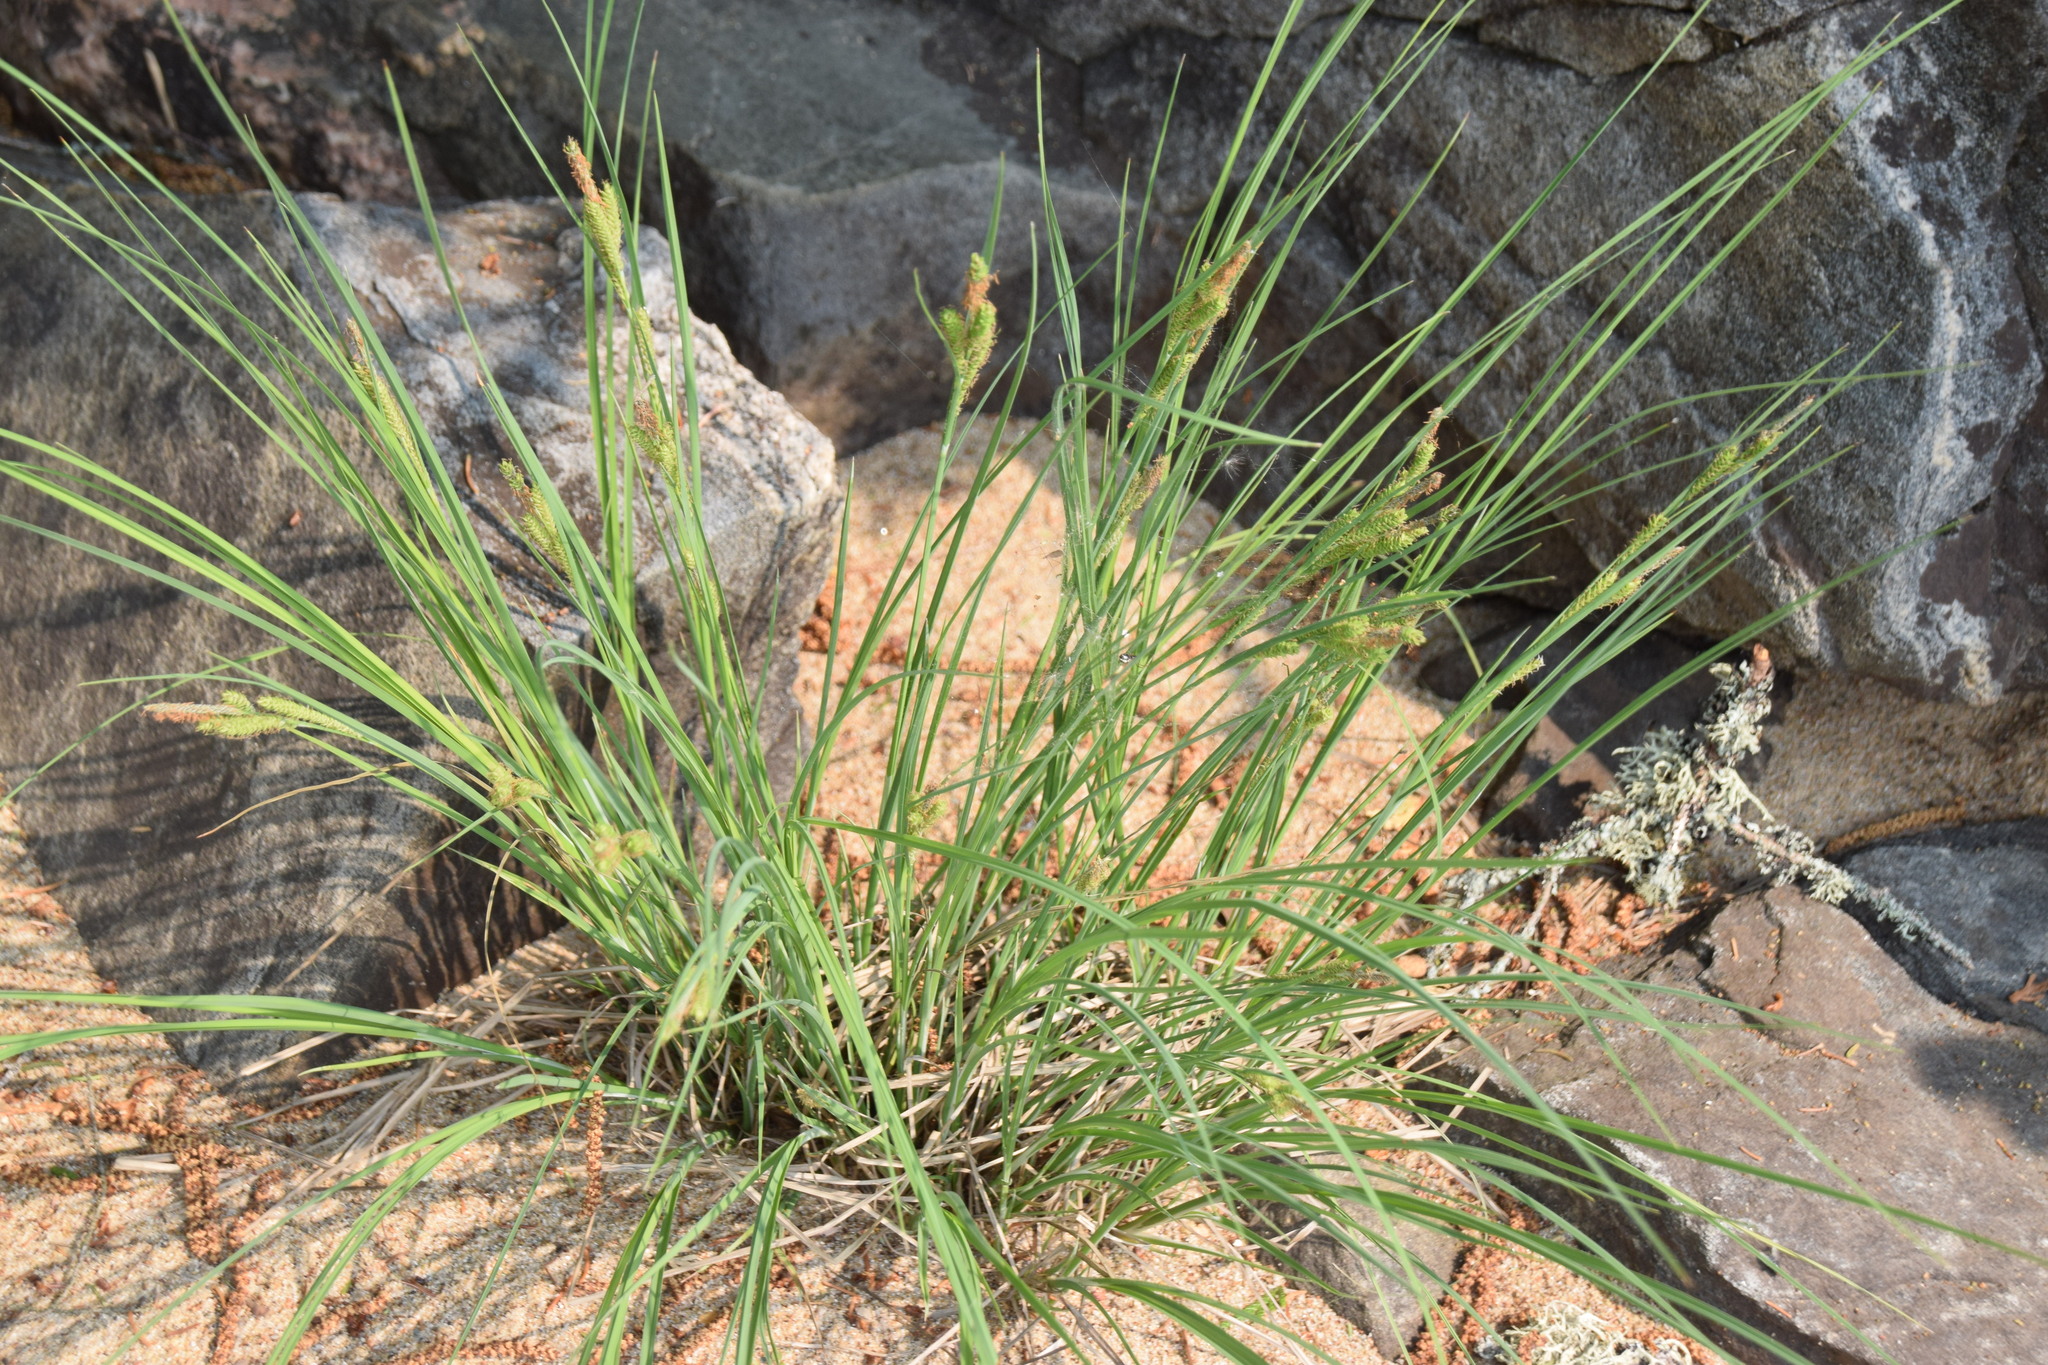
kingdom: Plantae
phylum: Tracheophyta
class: Liliopsida
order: Poales
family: Cyperaceae
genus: Carex
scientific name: Carex lenticularis
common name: Lakeshore sedge
